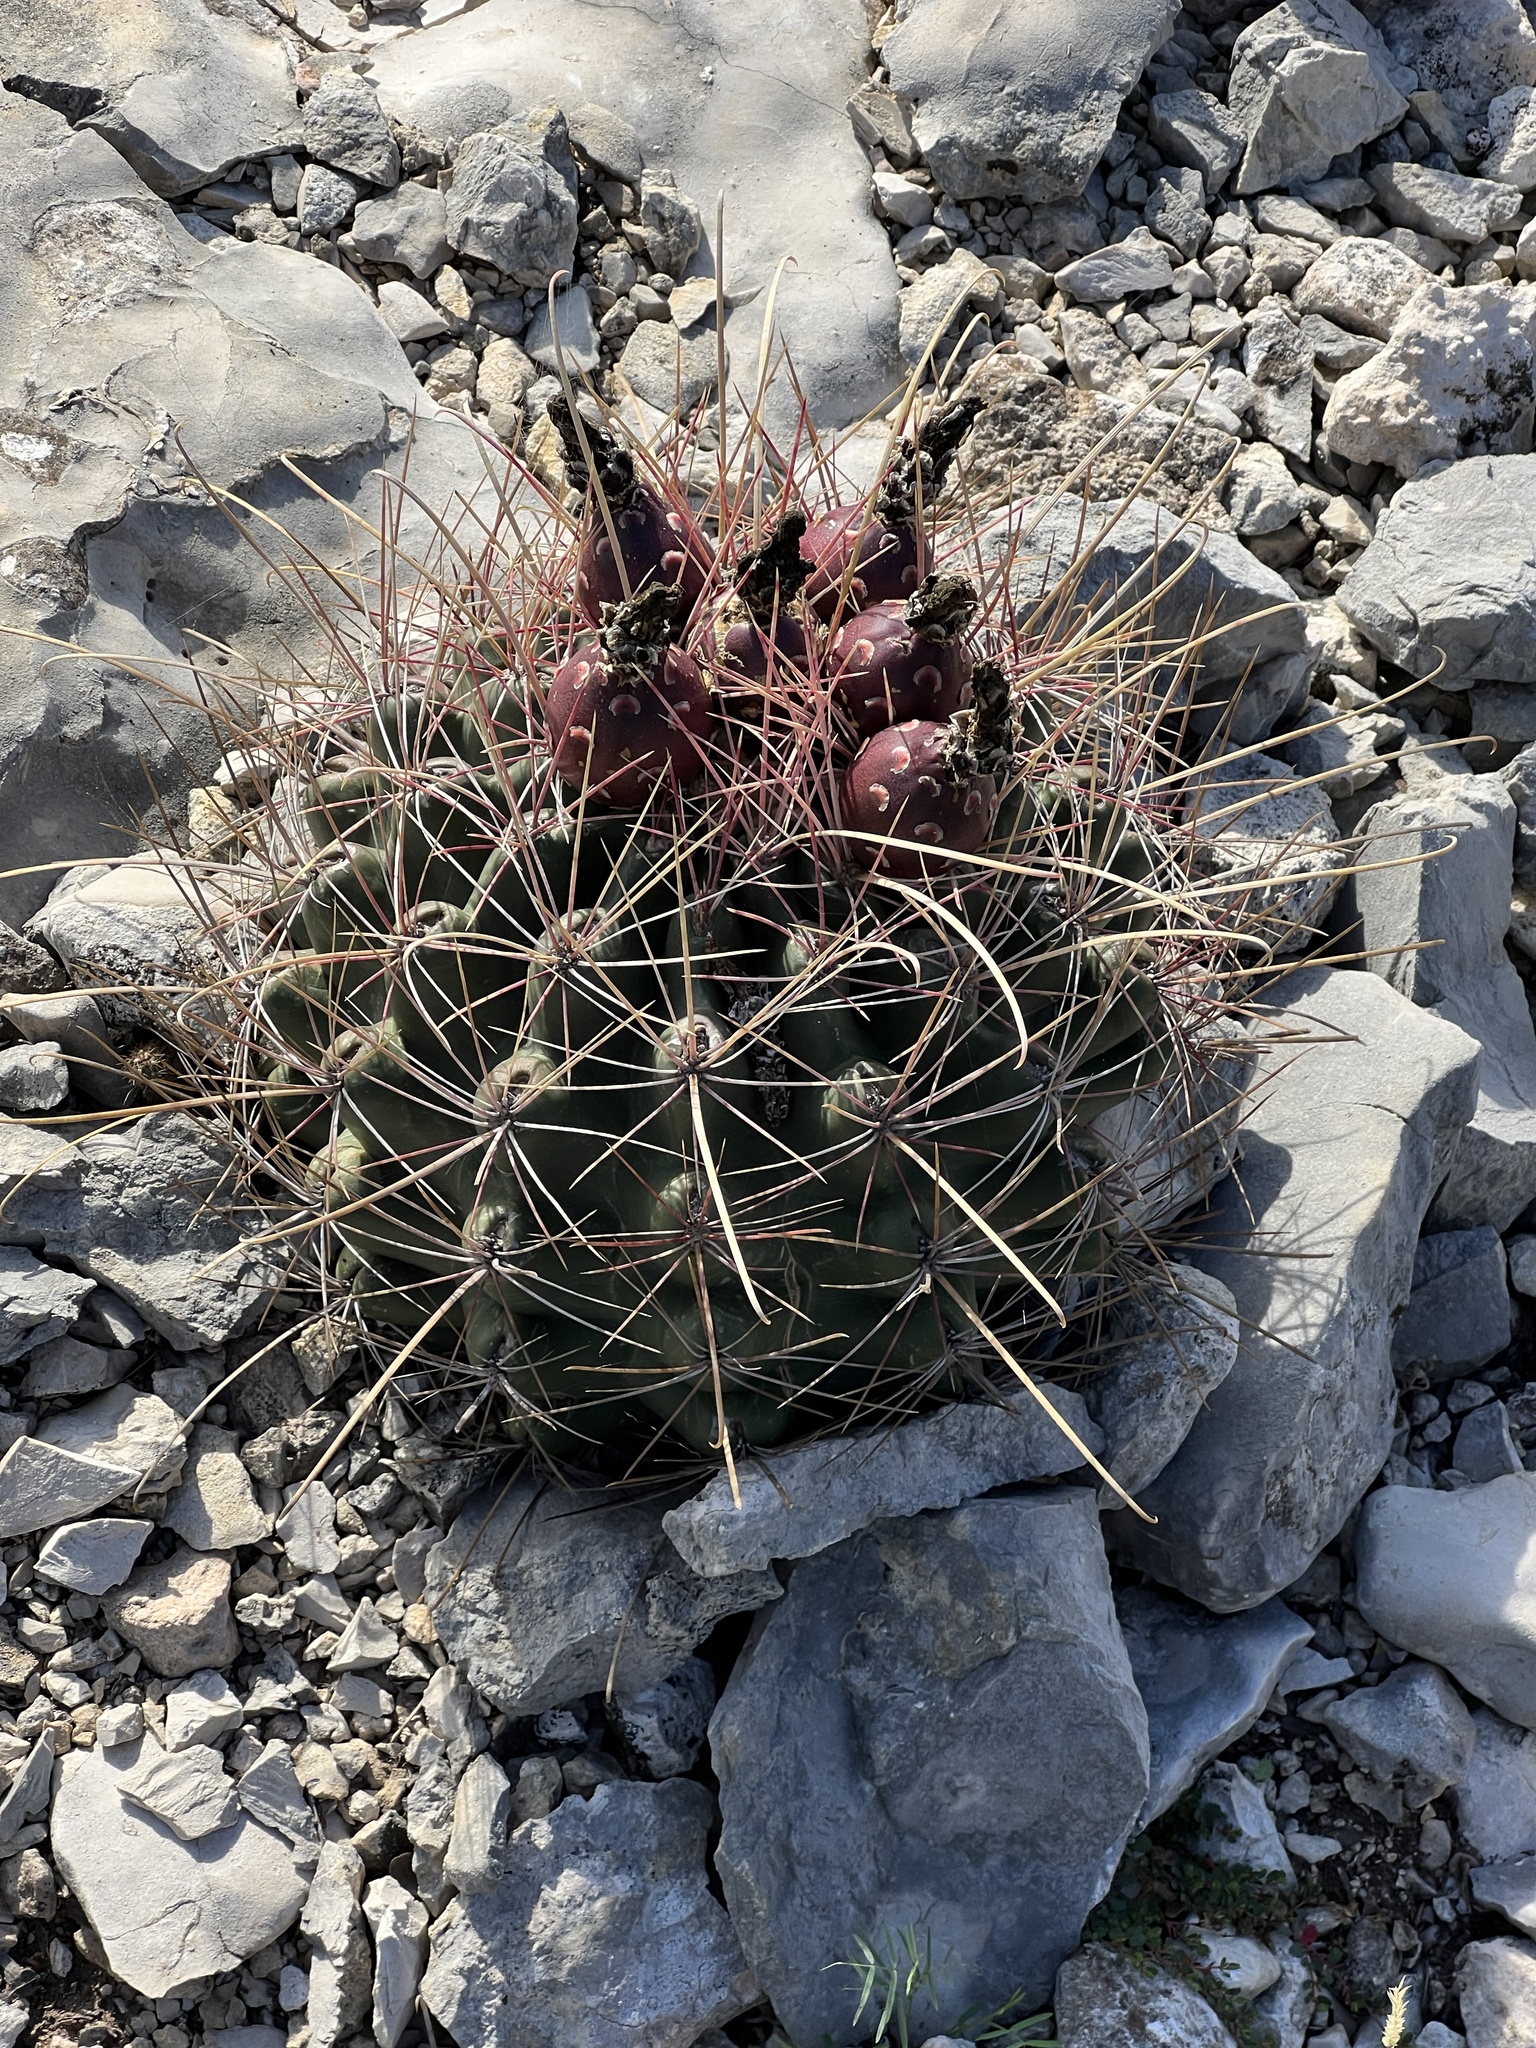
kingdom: Plantae
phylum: Tracheophyta
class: Magnoliopsida
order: Caryophyllales
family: Cactaceae
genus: Bisnaga
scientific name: Bisnaga hamatacantha
